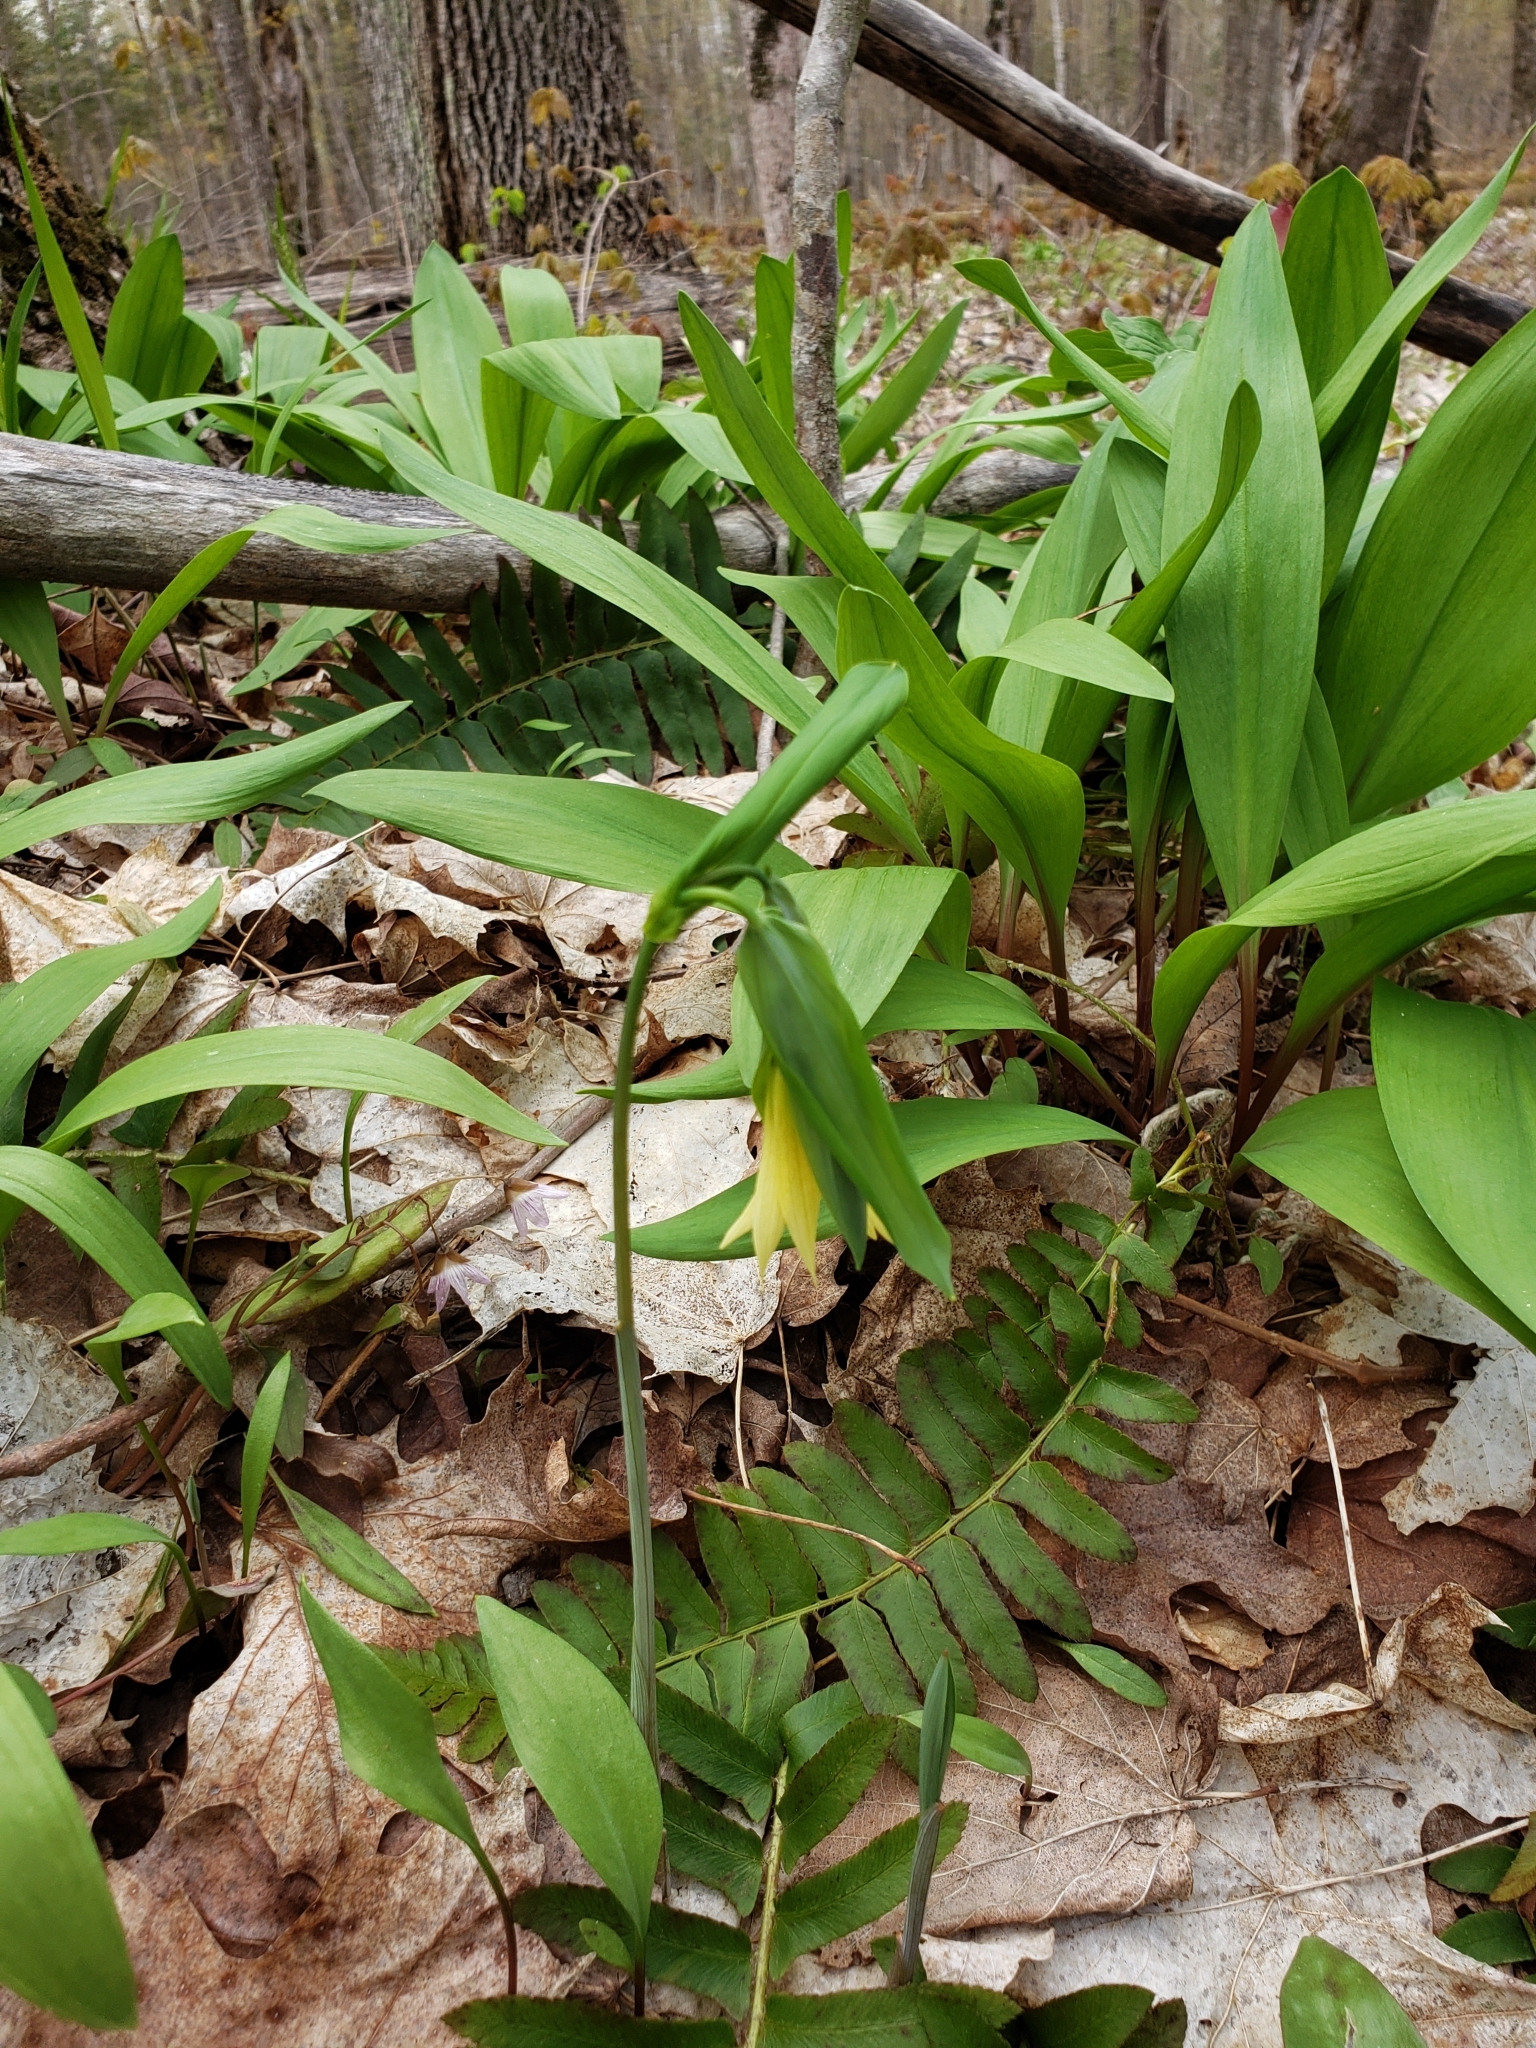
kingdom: Plantae
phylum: Tracheophyta
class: Liliopsida
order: Liliales
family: Colchicaceae
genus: Uvularia
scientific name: Uvularia grandiflora
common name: Bellwort
